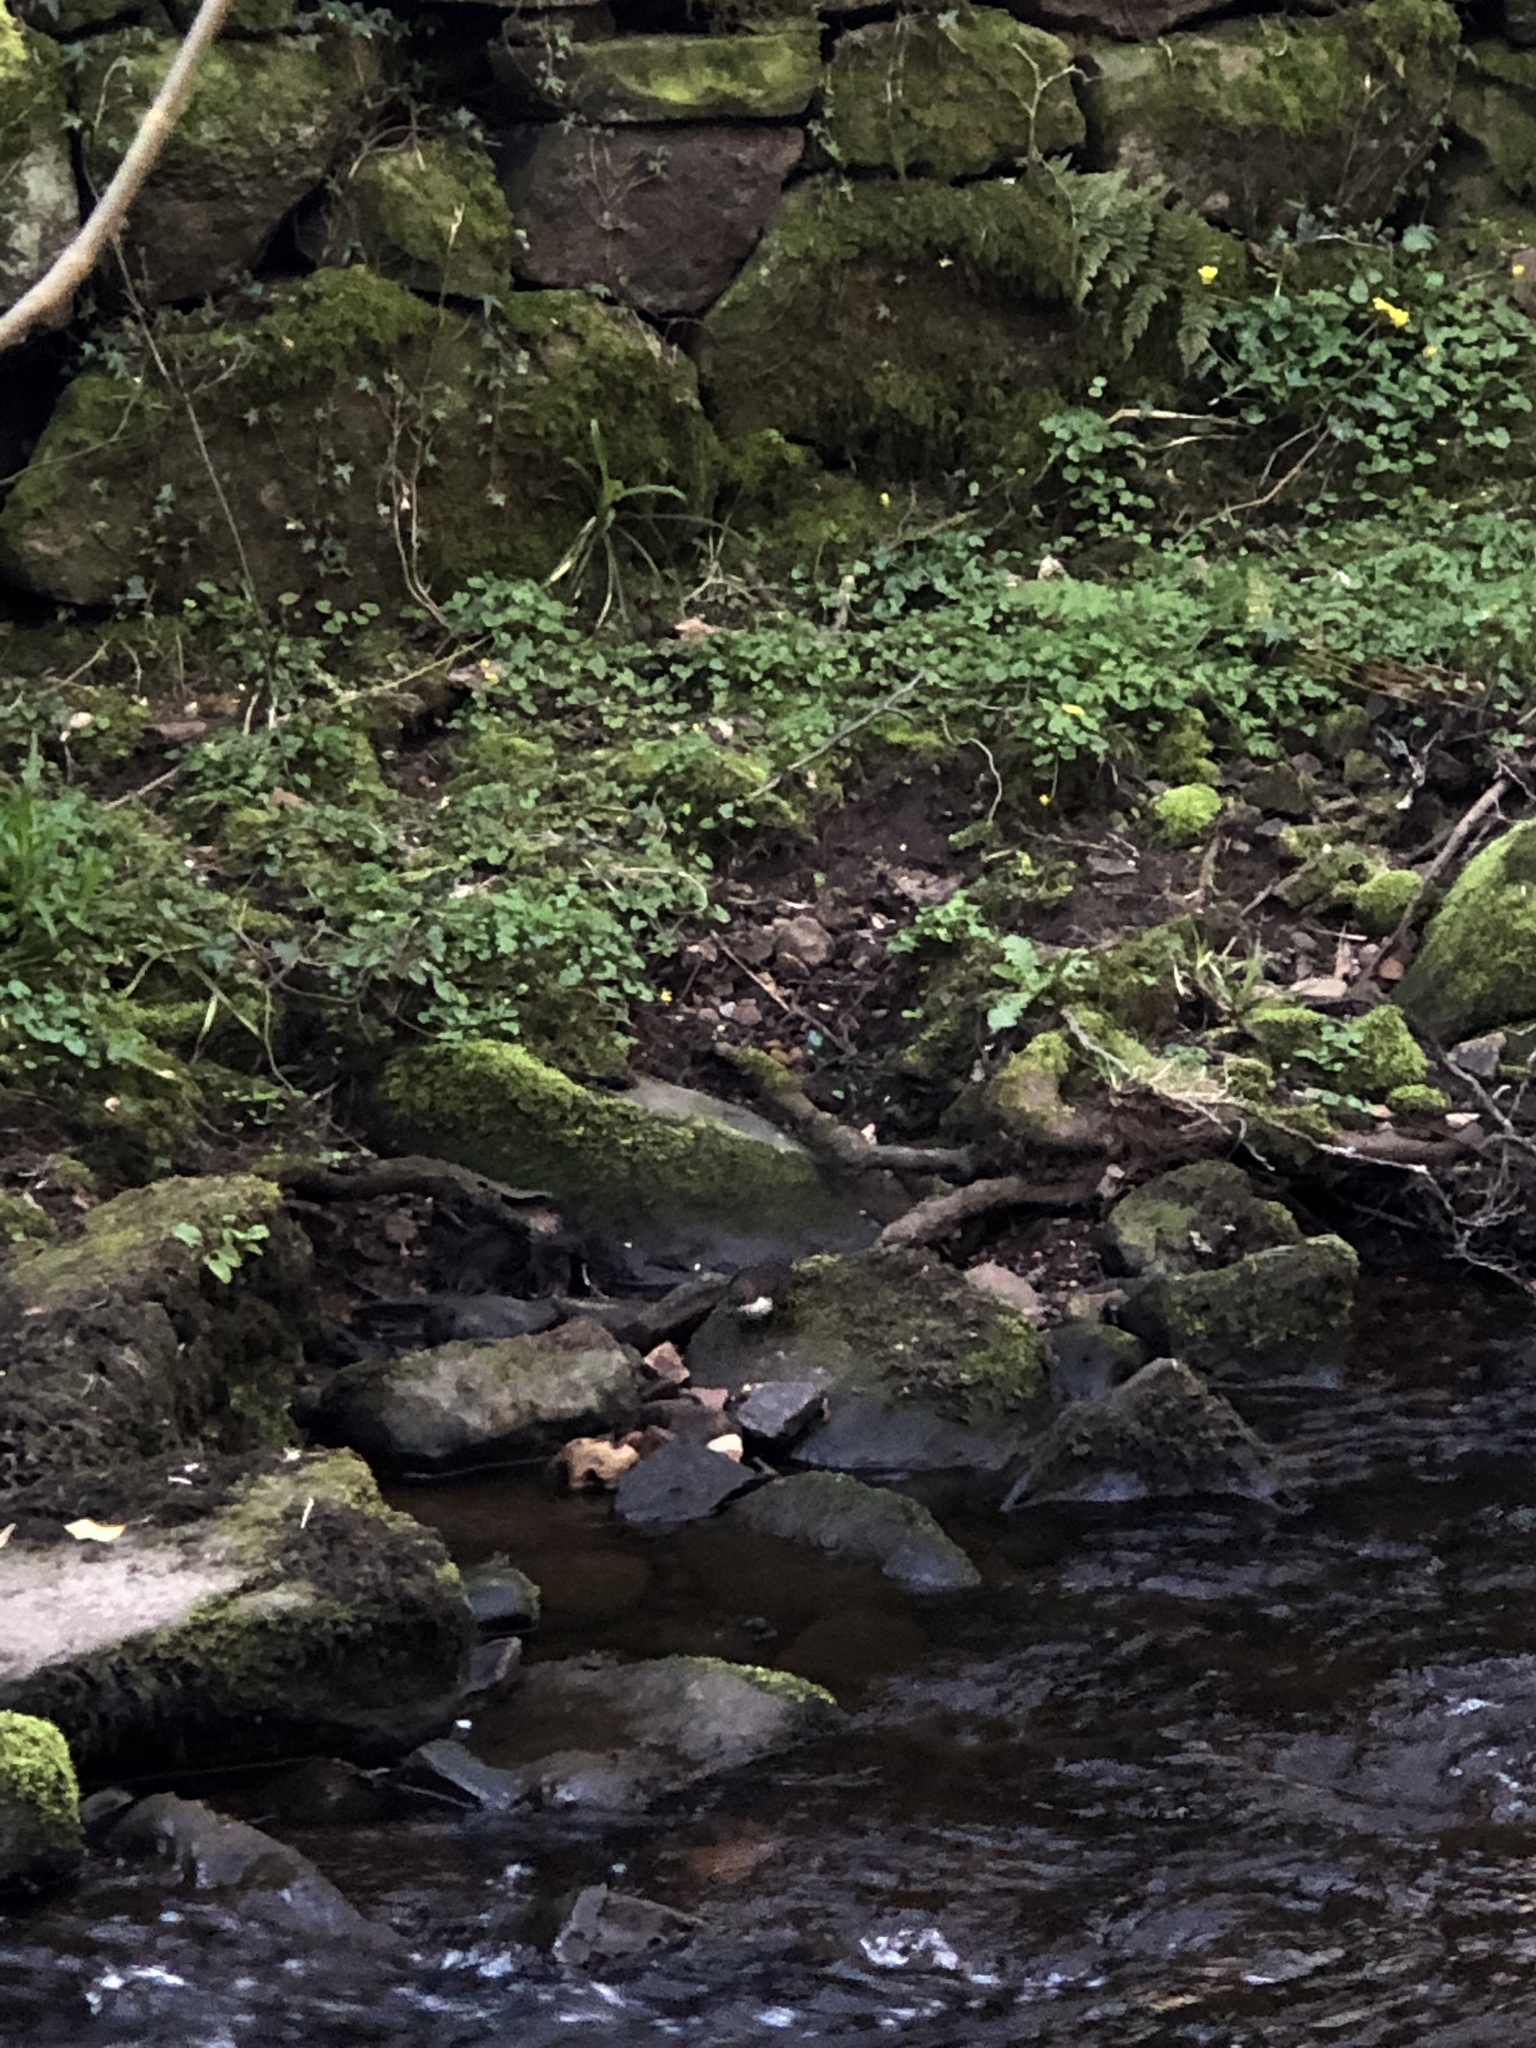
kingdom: Animalia
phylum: Chordata
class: Aves
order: Passeriformes
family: Cinclidae
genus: Cinclus
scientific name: Cinclus cinclus
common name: White-throated dipper
